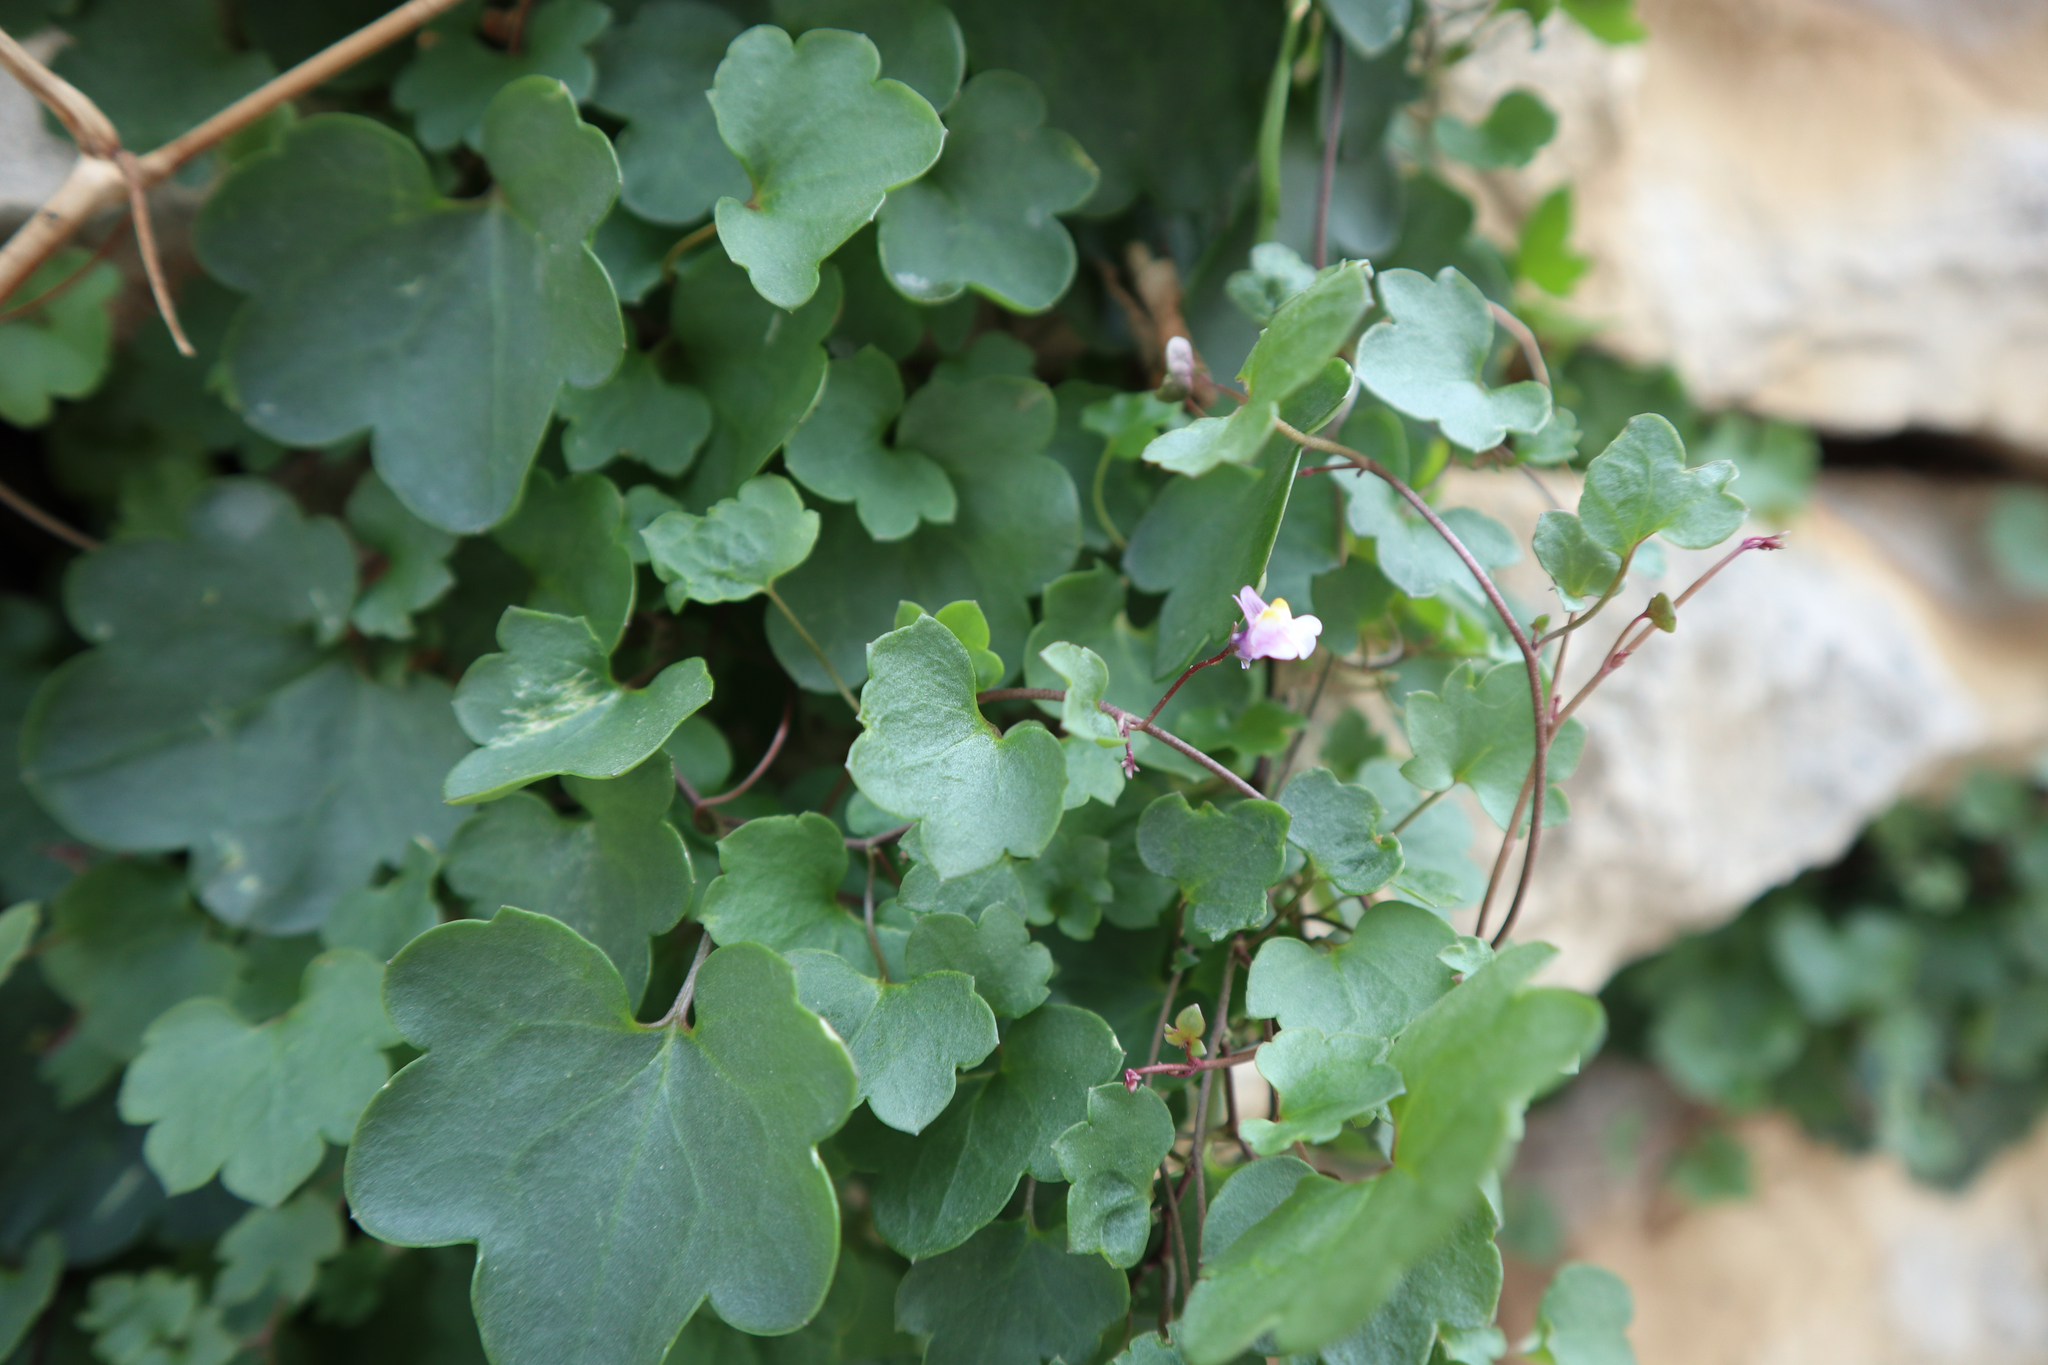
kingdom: Plantae
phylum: Tracheophyta
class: Magnoliopsida
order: Lamiales
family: Plantaginaceae
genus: Cymbalaria
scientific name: Cymbalaria muralis
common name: Ivy-leaved toadflax
